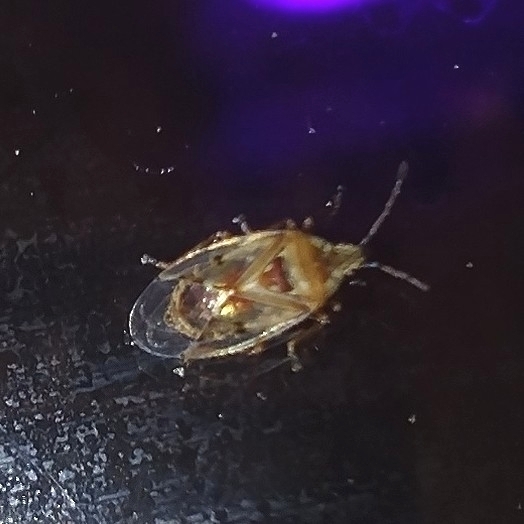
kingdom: Animalia
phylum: Arthropoda
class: Insecta
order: Hemiptera
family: Lygaeidae
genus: Kleidocerys
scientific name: Kleidocerys resedae
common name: Birch catkin bug
